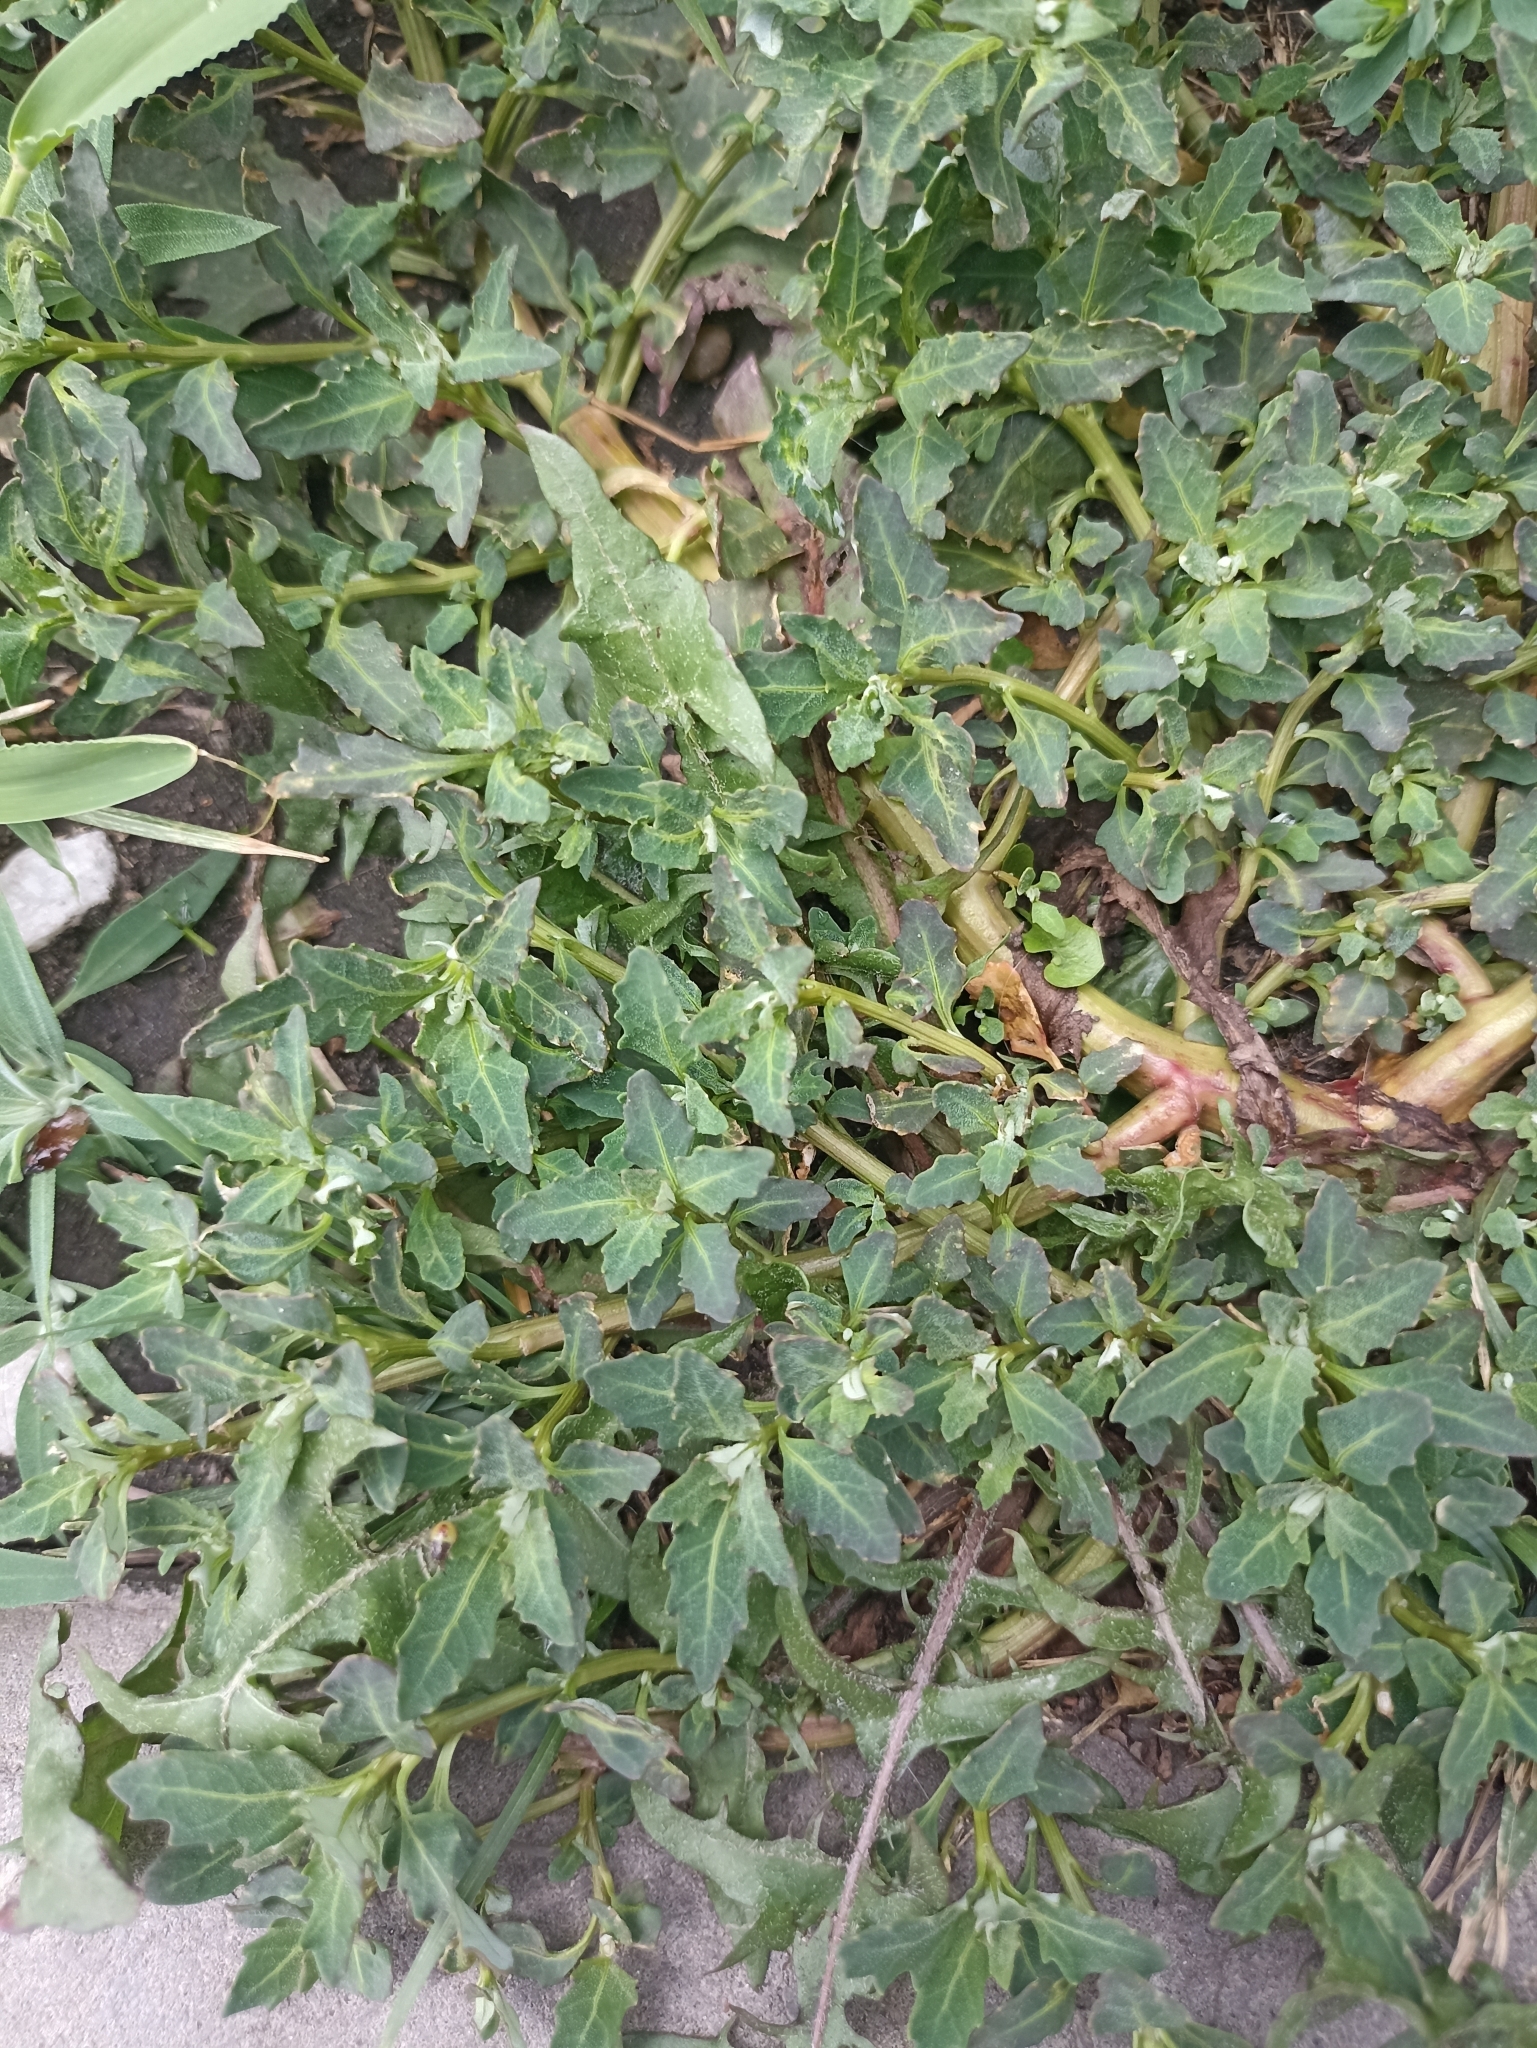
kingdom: Plantae
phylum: Tracheophyta
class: Magnoliopsida
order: Caryophyllales
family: Amaranthaceae
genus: Oxybasis
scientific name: Oxybasis glauca
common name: Glaucous goosefoot
